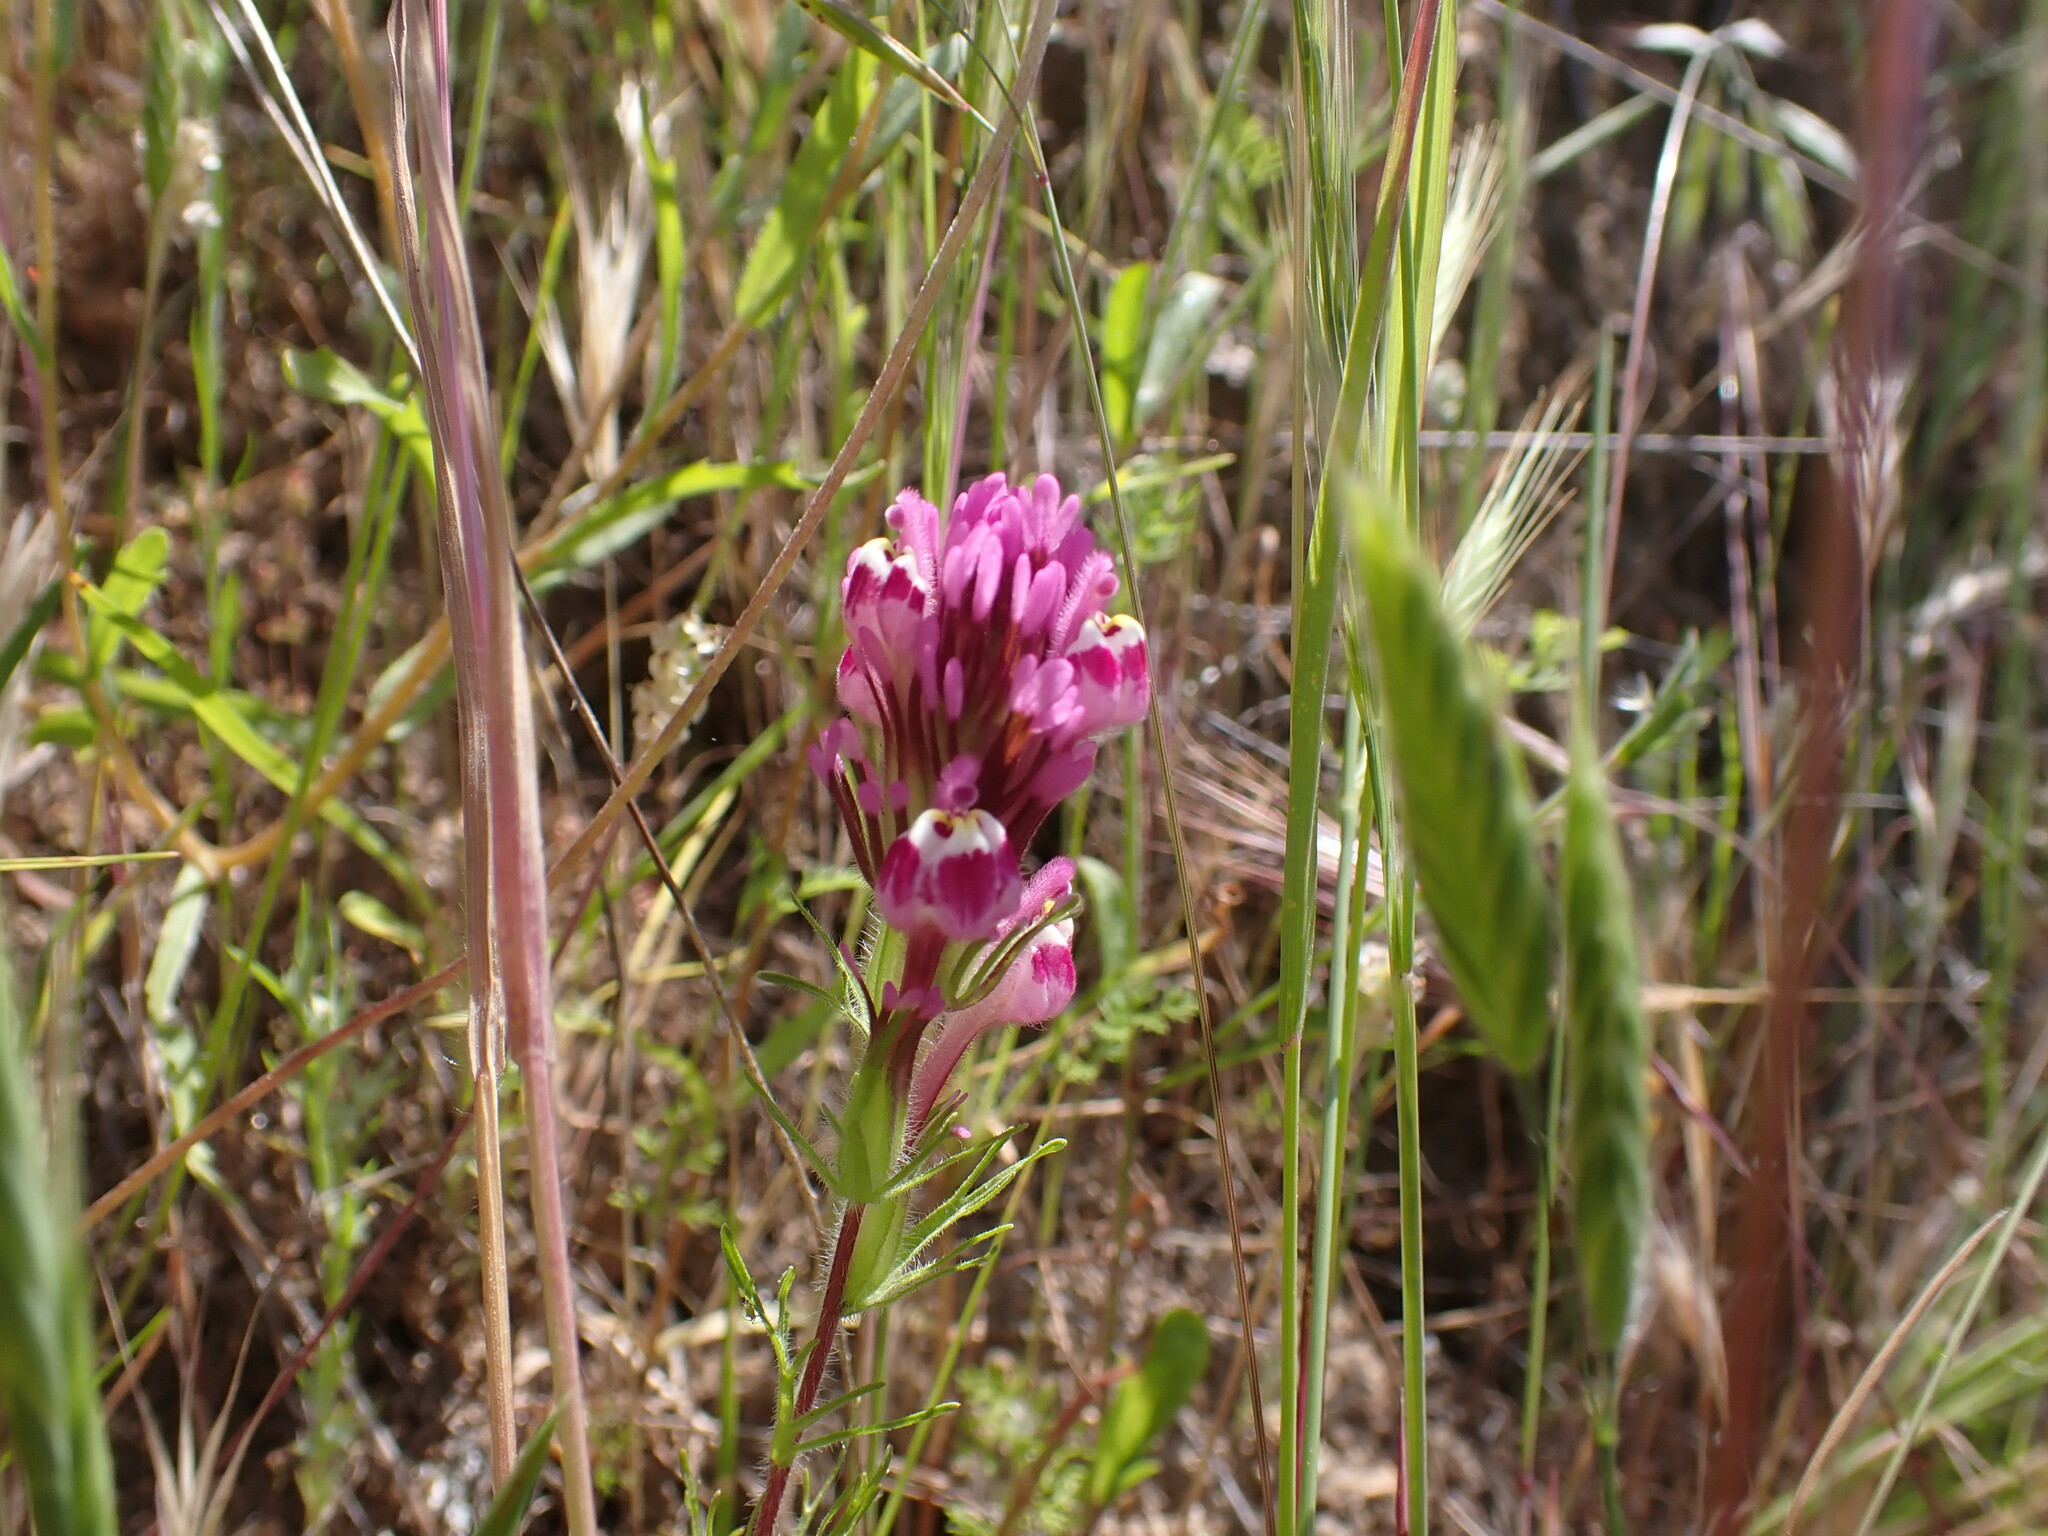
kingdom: Plantae
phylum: Tracheophyta
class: Magnoliopsida
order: Lamiales
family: Orobanchaceae
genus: Castilleja
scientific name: Castilleja exserta
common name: Purple owl-clover
